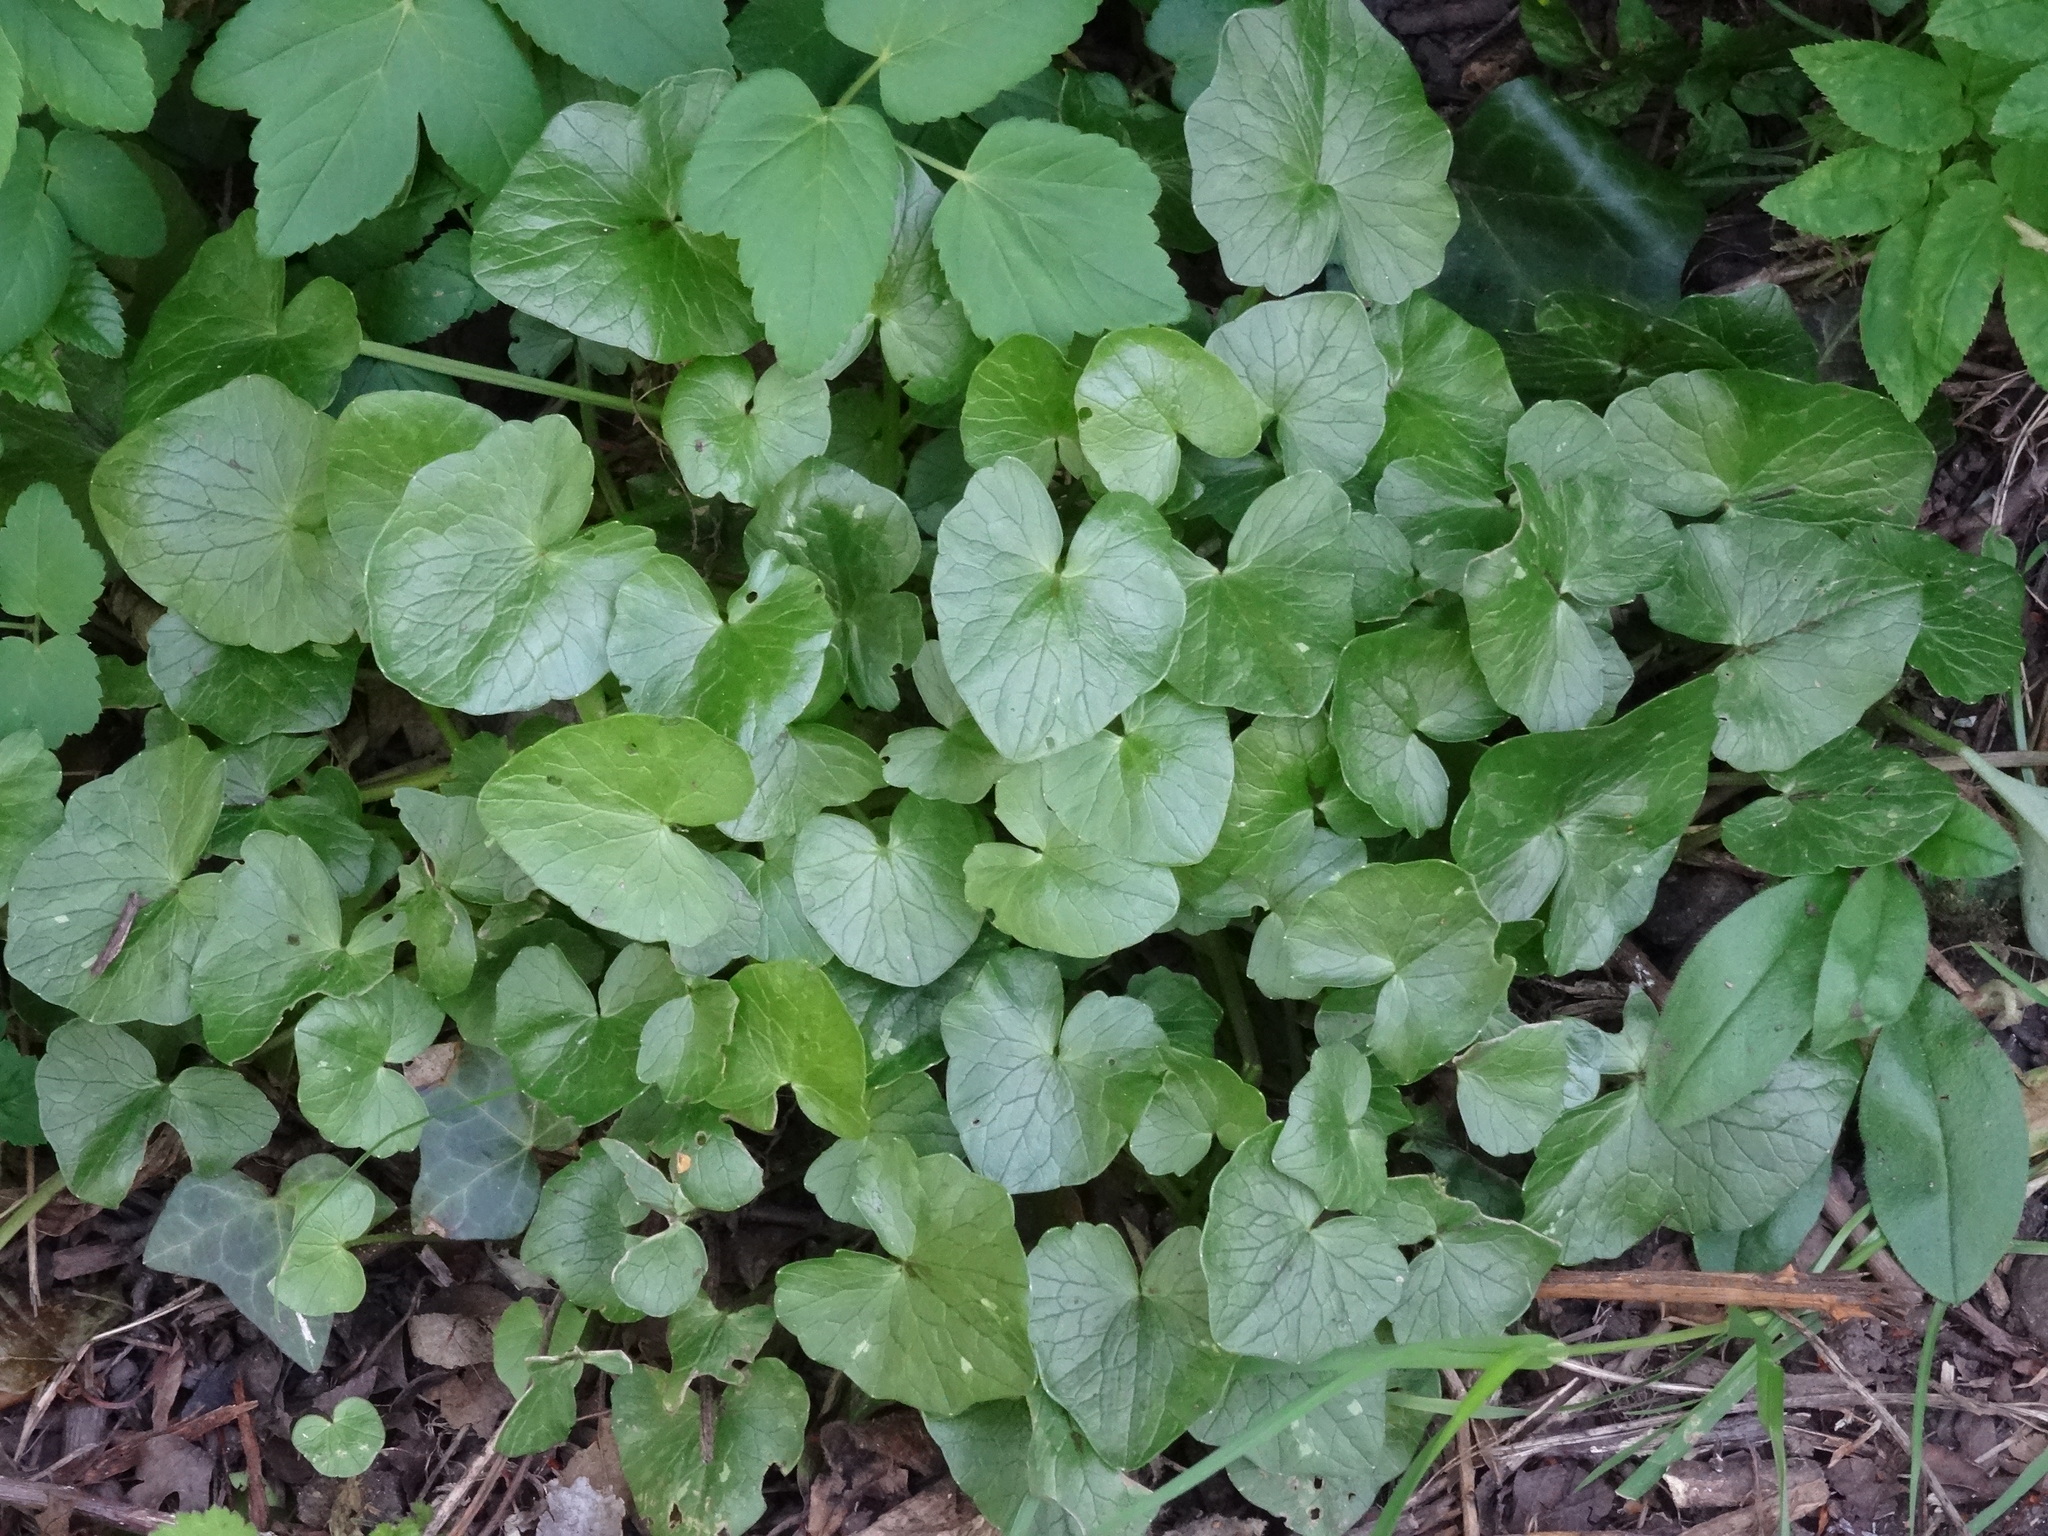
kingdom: Plantae
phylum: Tracheophyta
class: Magnoliopsida
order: Ranunculales
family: Ranunculaceae
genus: Ficaria
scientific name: Ficaria verna
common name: Lesser celandine
